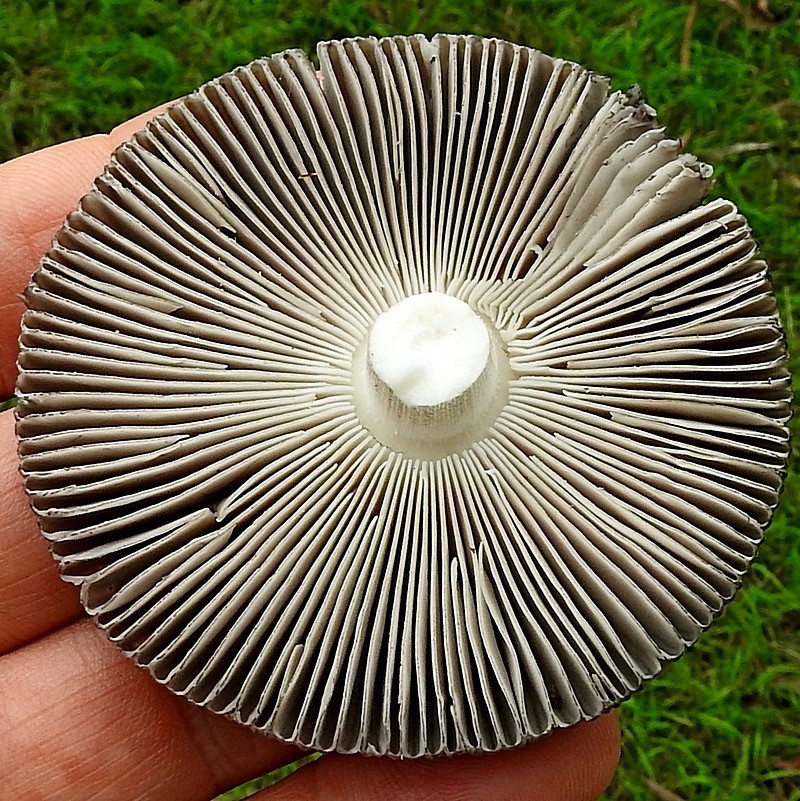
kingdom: Fungi
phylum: Basidiomycota
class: Agaricomycetes
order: Agaricales
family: Amanitaceae
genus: Amanita
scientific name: Amanita cheelii
